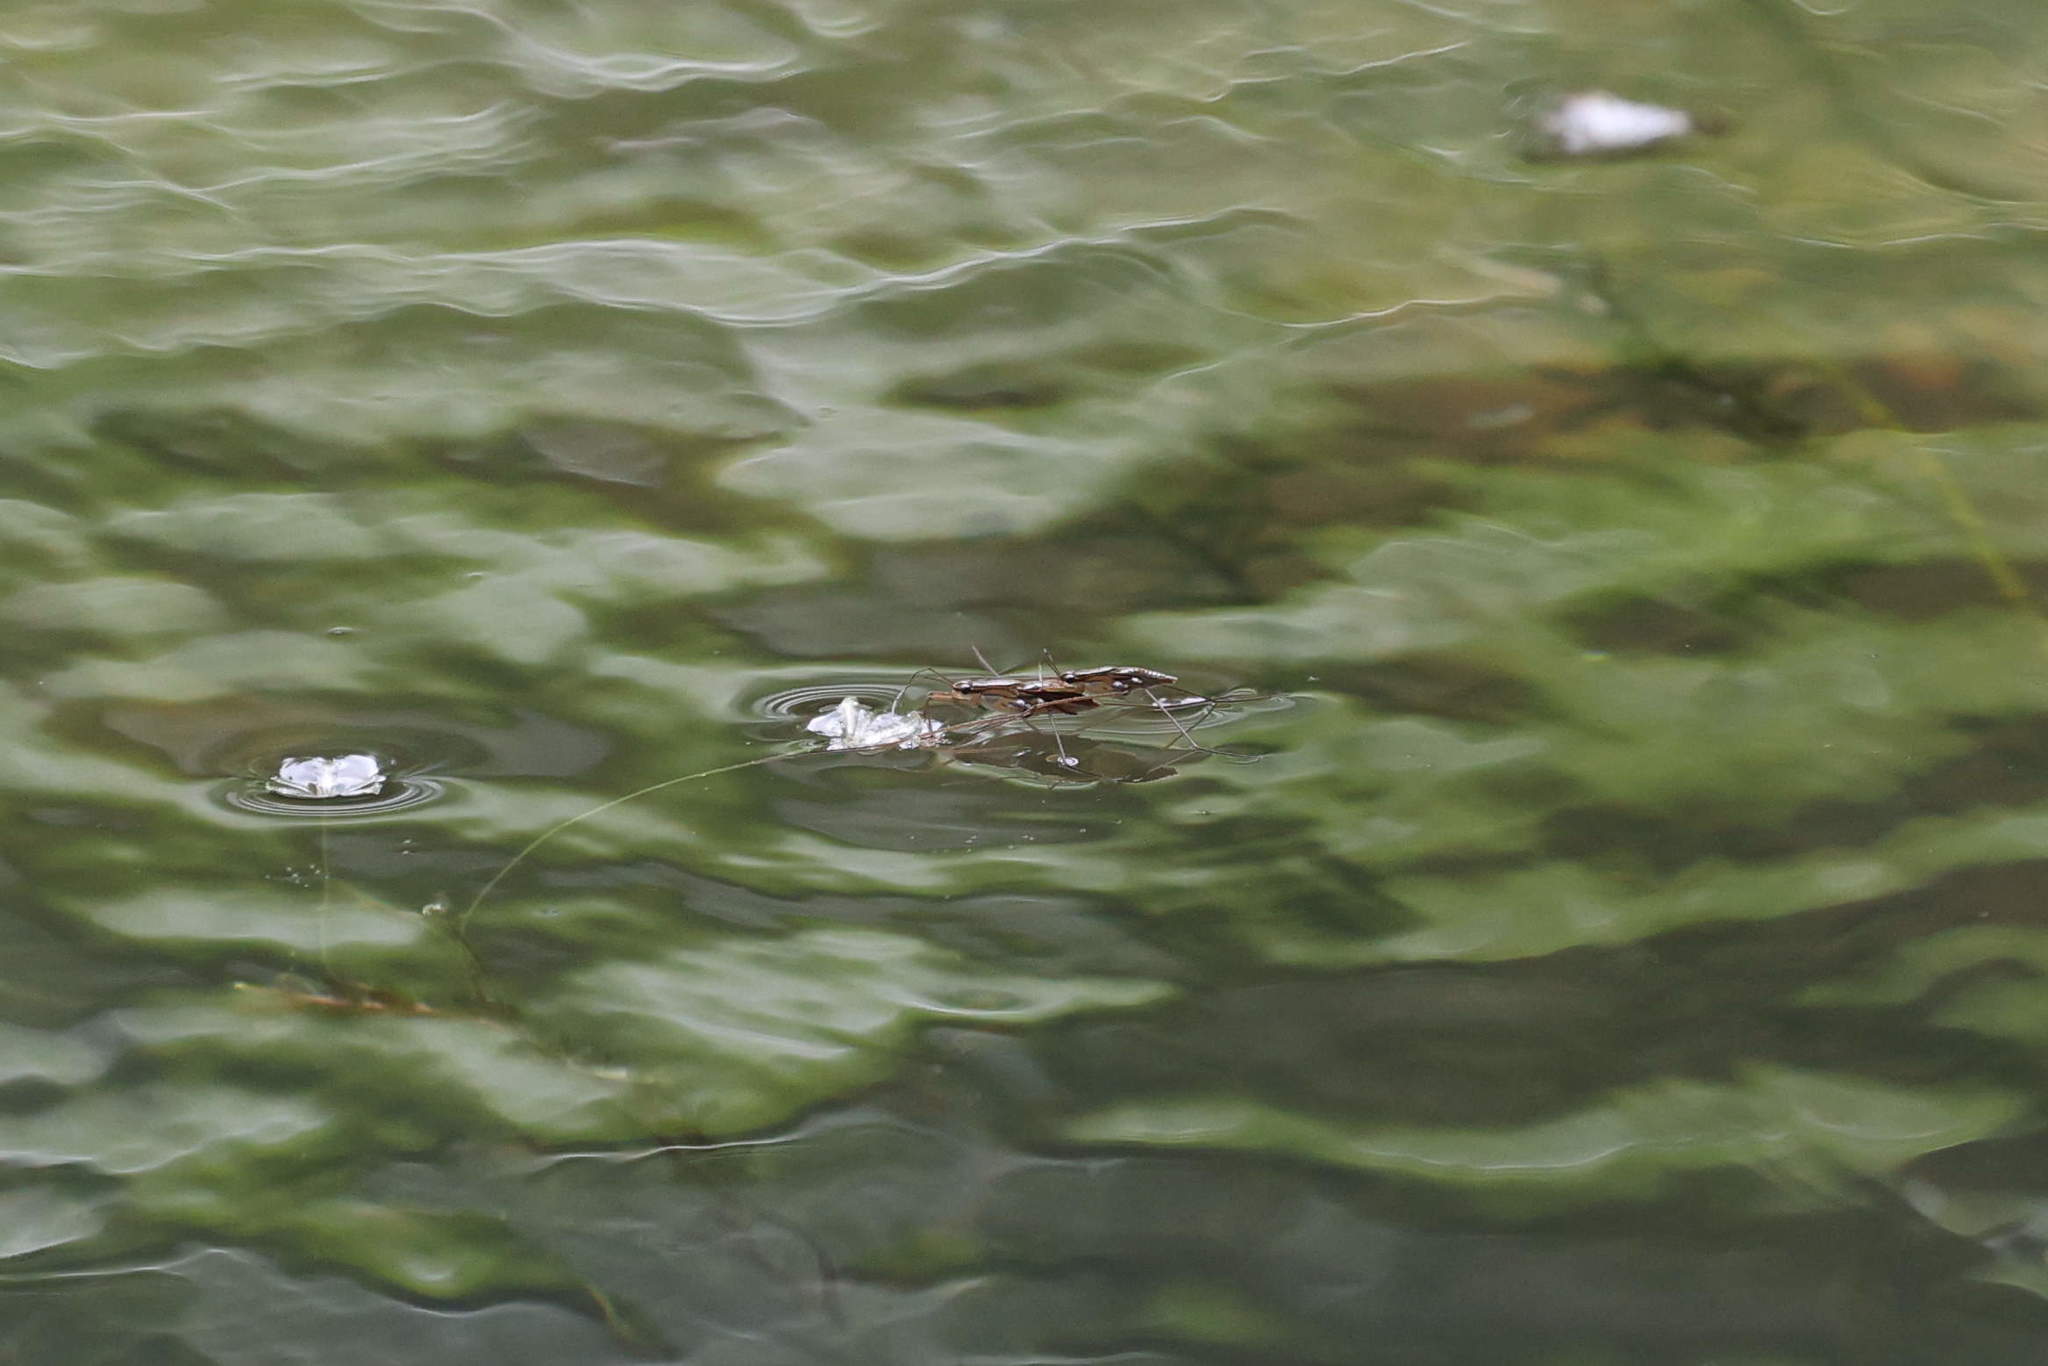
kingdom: Animalia
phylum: Arthropoda
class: Insecta
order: Hemiptera
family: Gerridae
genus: Limnogonus
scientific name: Limnogonus franciscanus
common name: Franciscan pond skater
